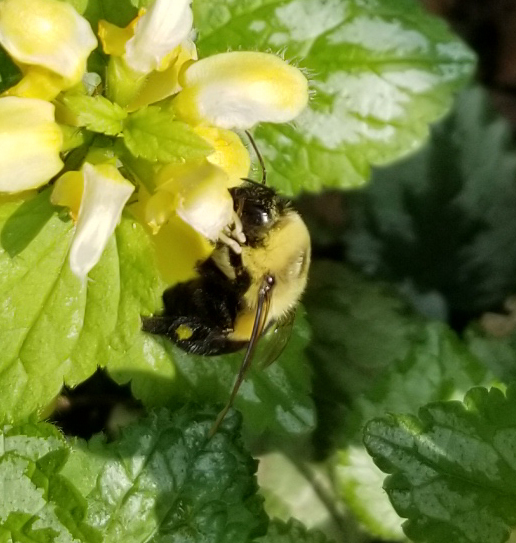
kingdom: Animalia
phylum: Arthropoda
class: Insecta
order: Hymenoptera
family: Apidae
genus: Bombus
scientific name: Bombus impatiens
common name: Common eastern bumble bee
